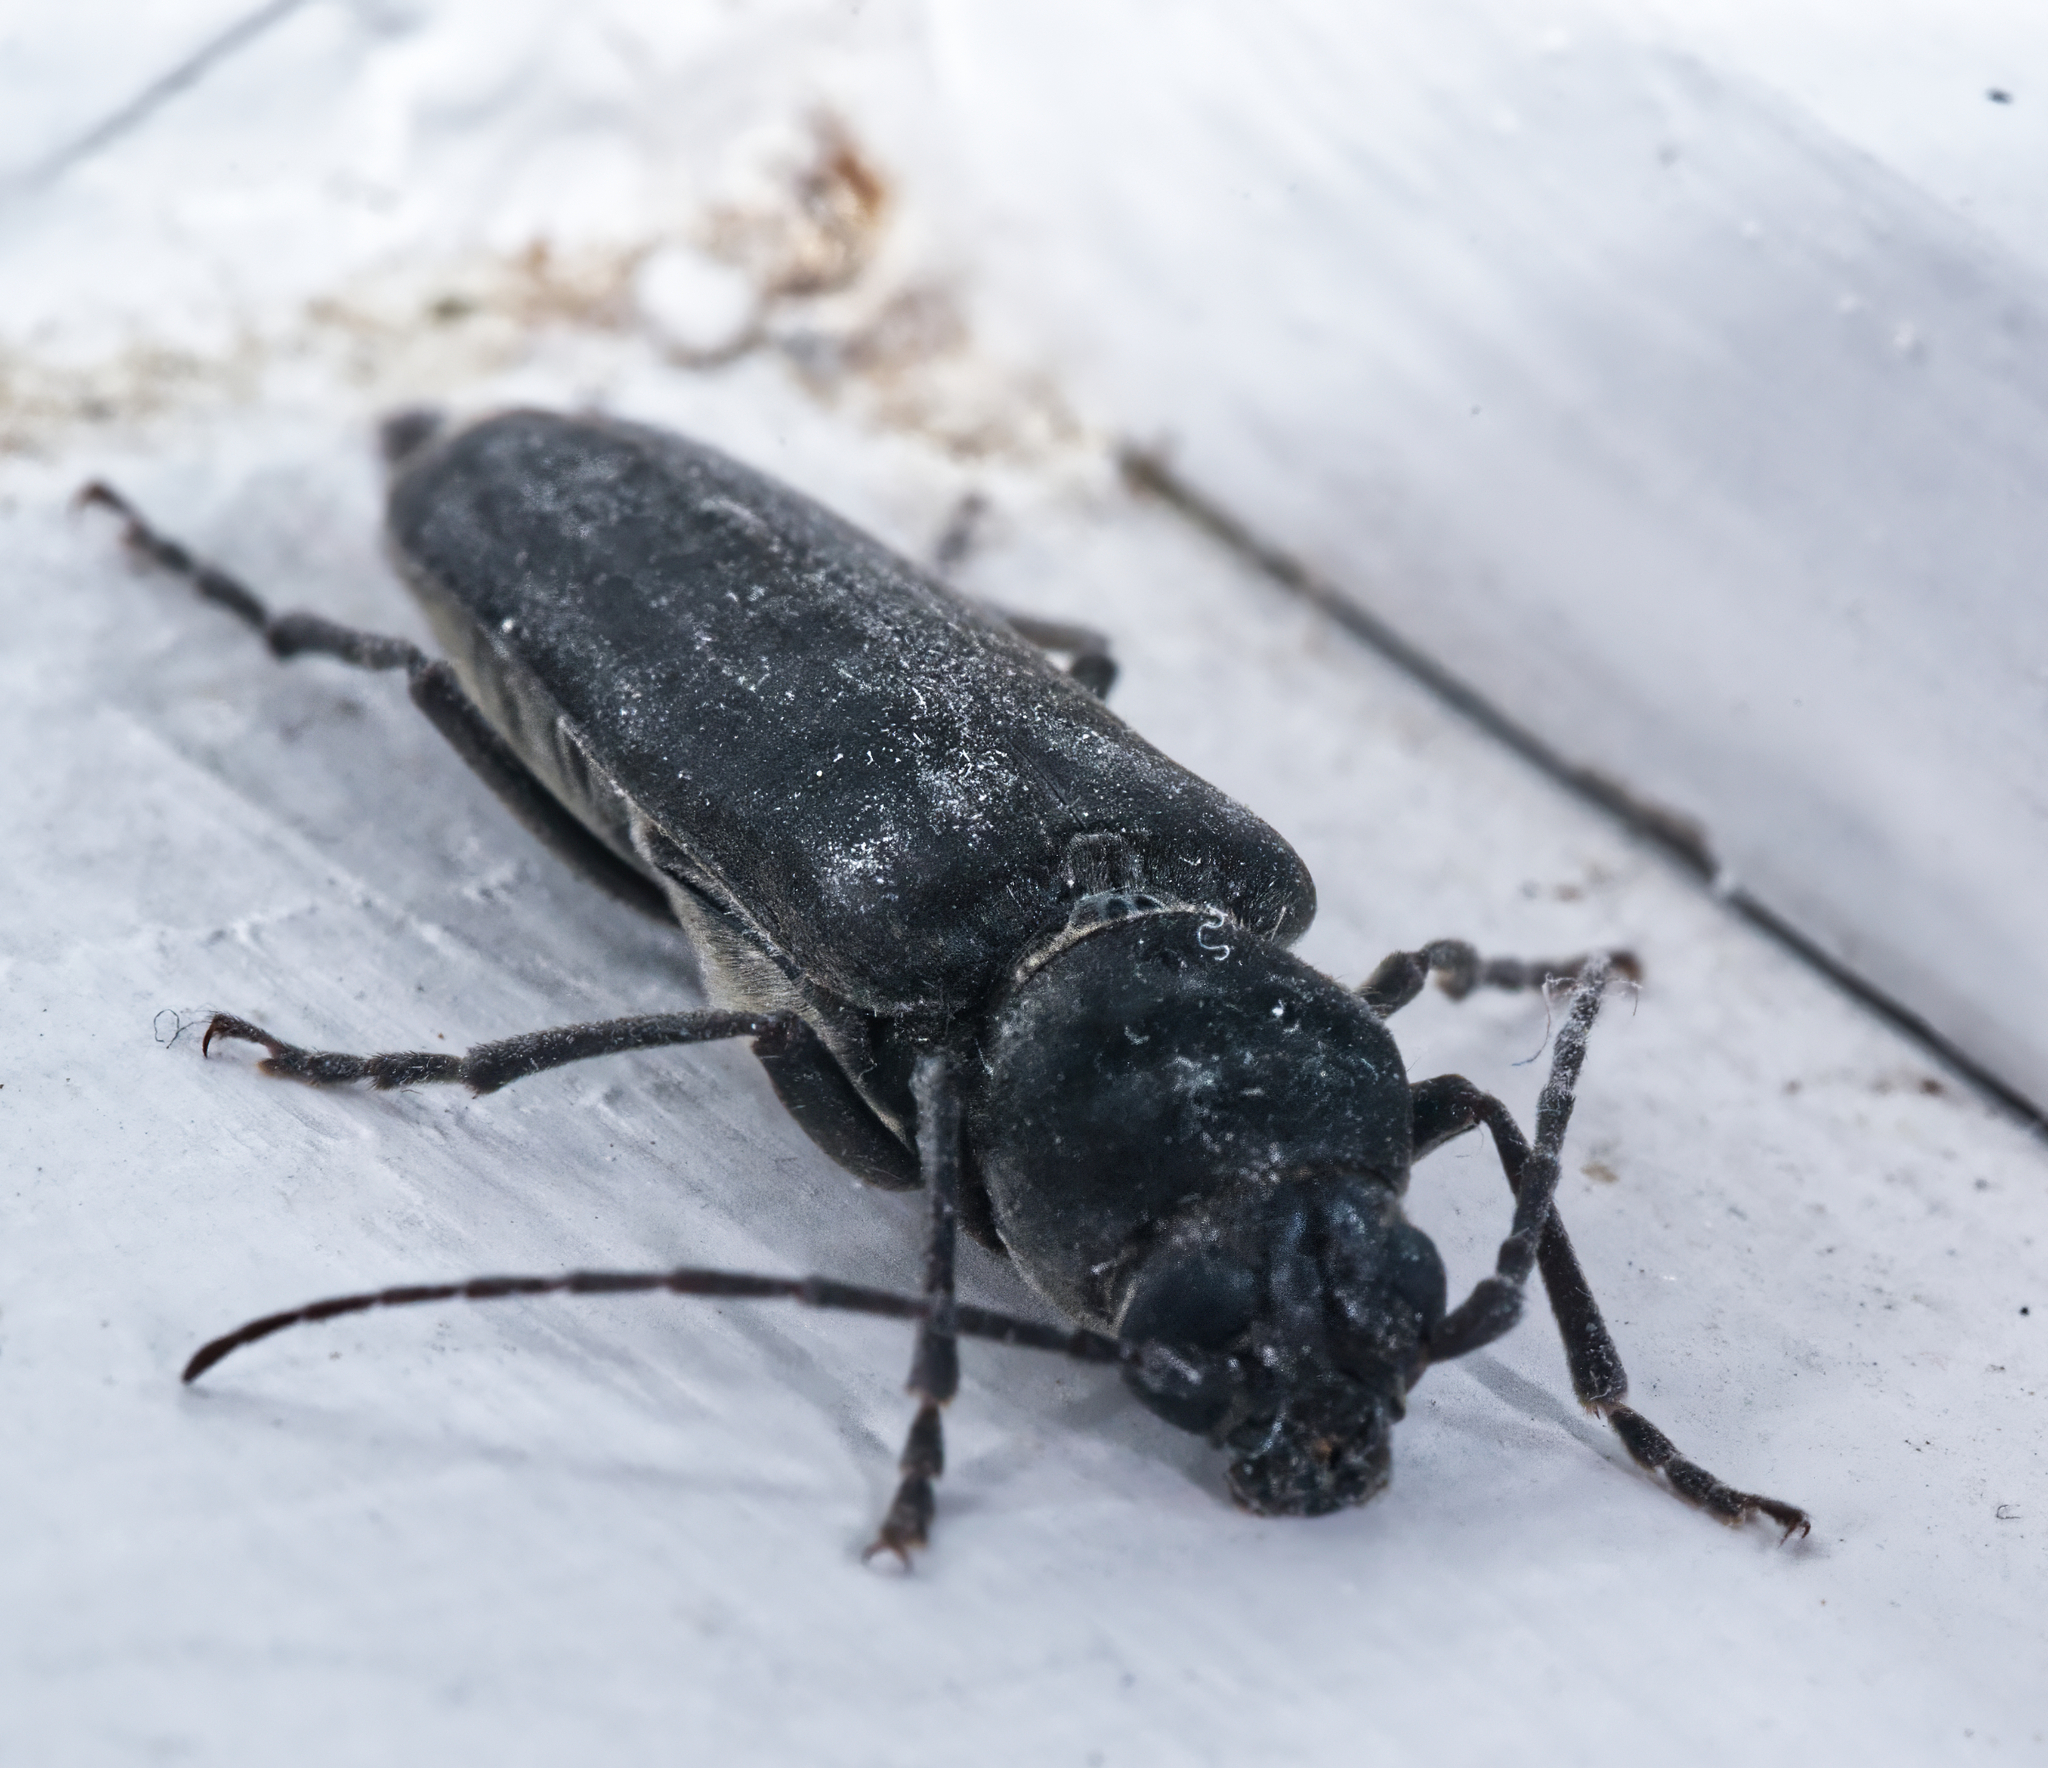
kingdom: Animalia
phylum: Arthropoda
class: Insecta
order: Coleoptera
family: Cerambycidae
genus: Arhopalus
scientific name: Arhopalus ferus
